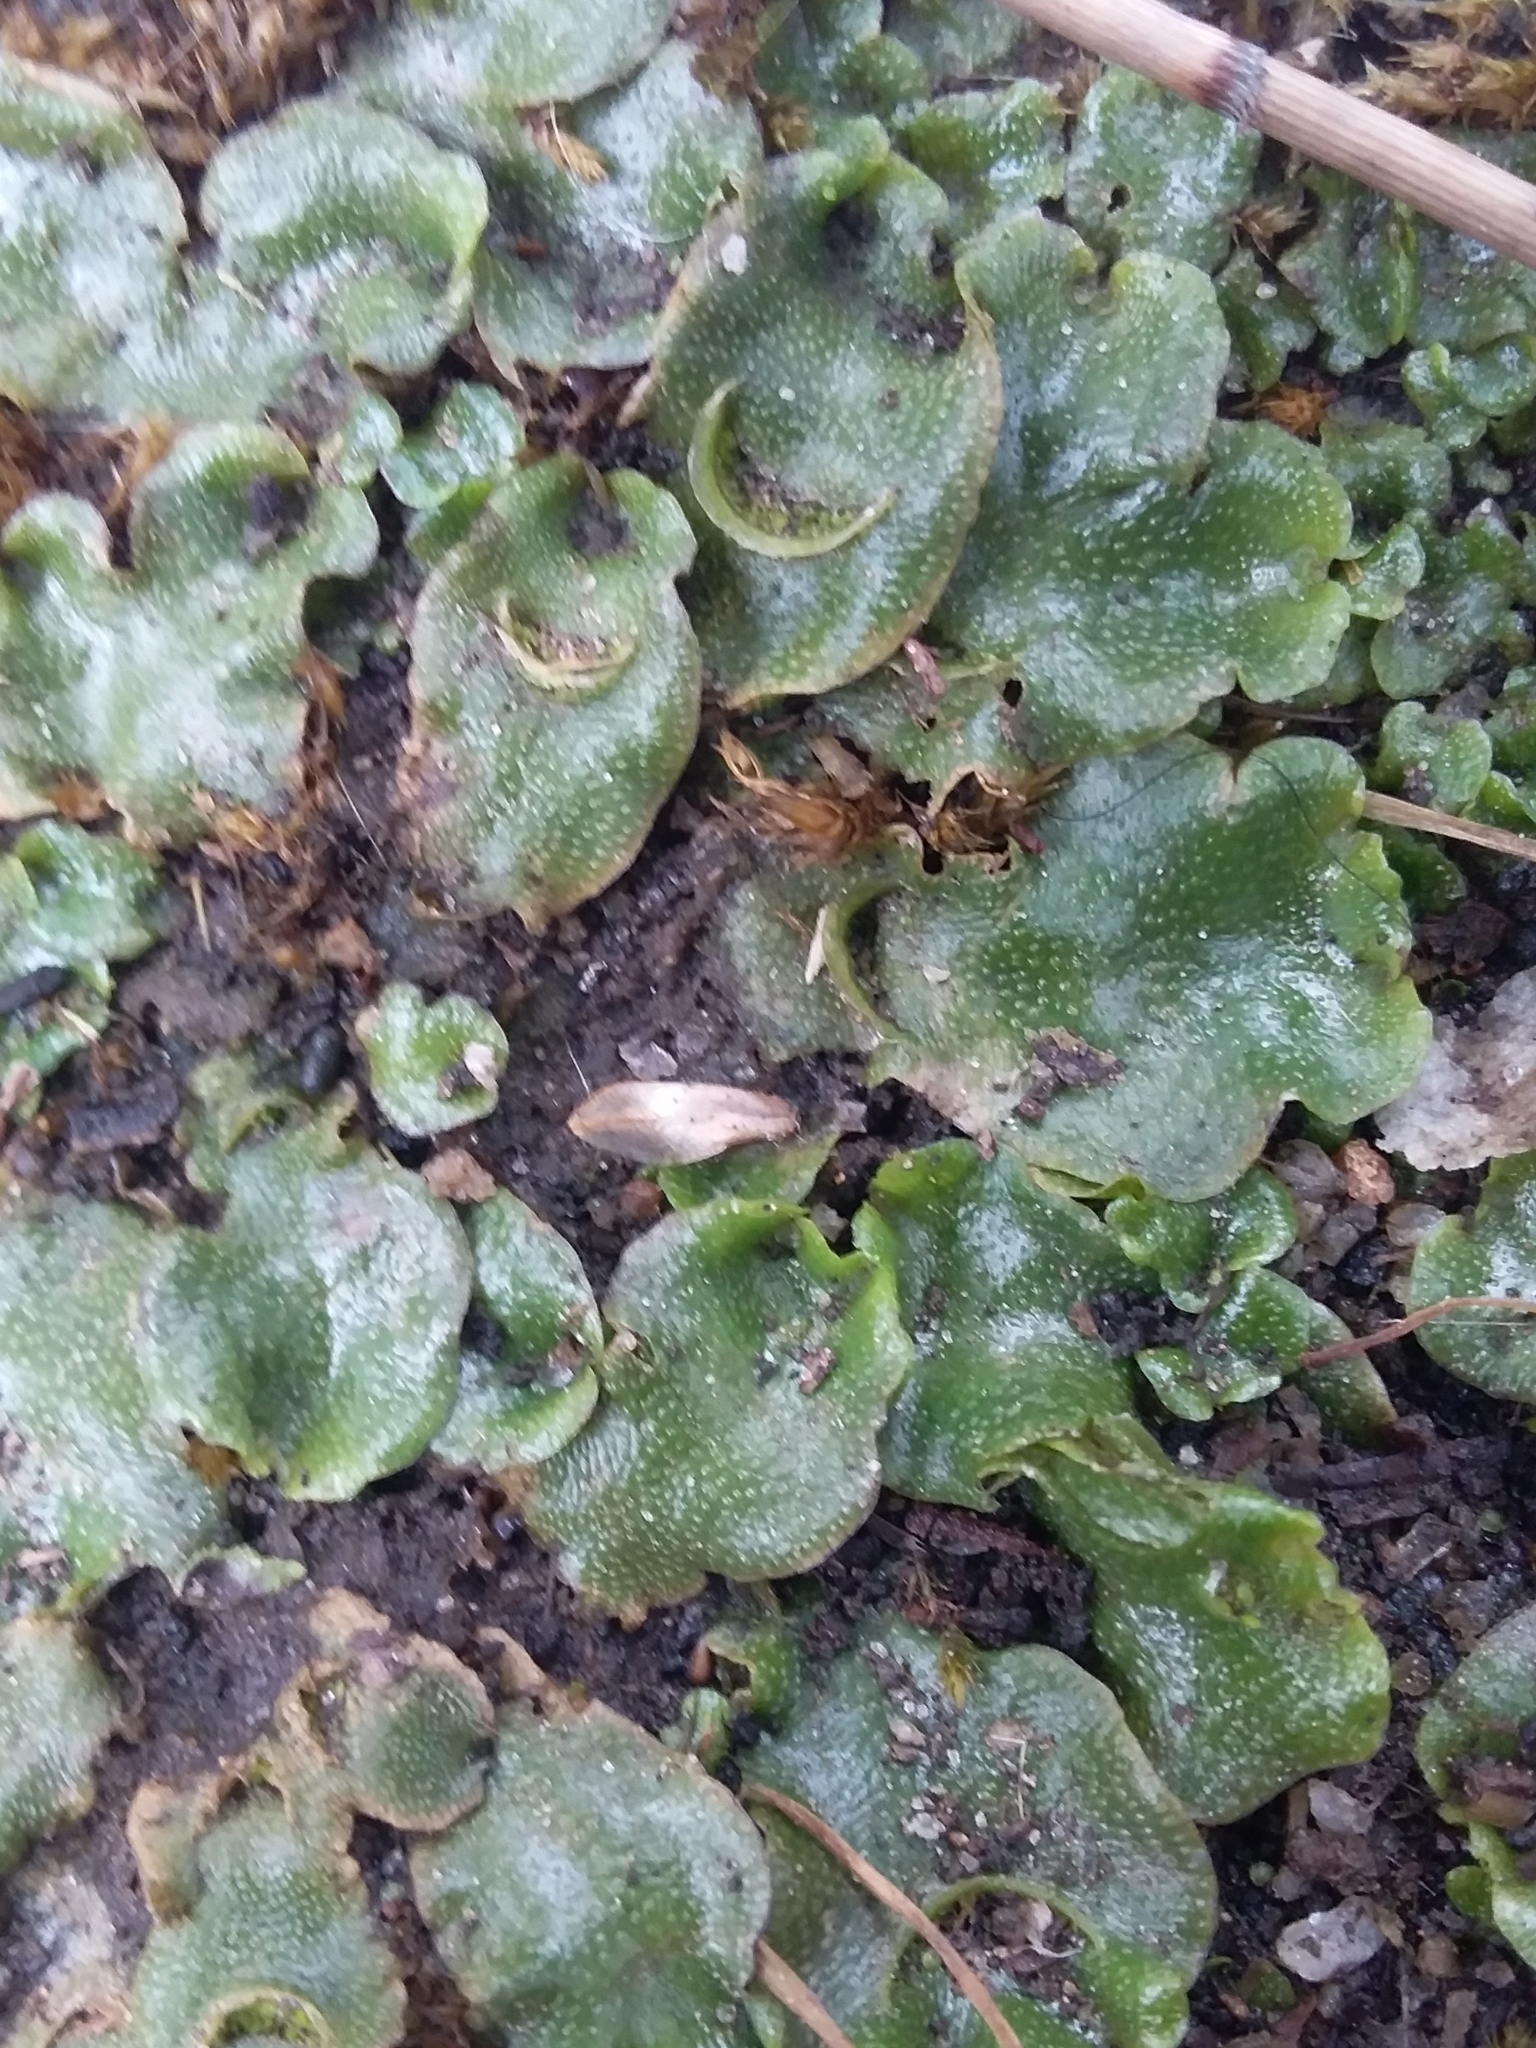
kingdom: Plantae
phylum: Marchantiophyta
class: Marchantiopsida
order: Lunulariales
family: Lunulariaceae
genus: Lunularia
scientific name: Lunularia cruciata
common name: Crescent-cup liverwort
